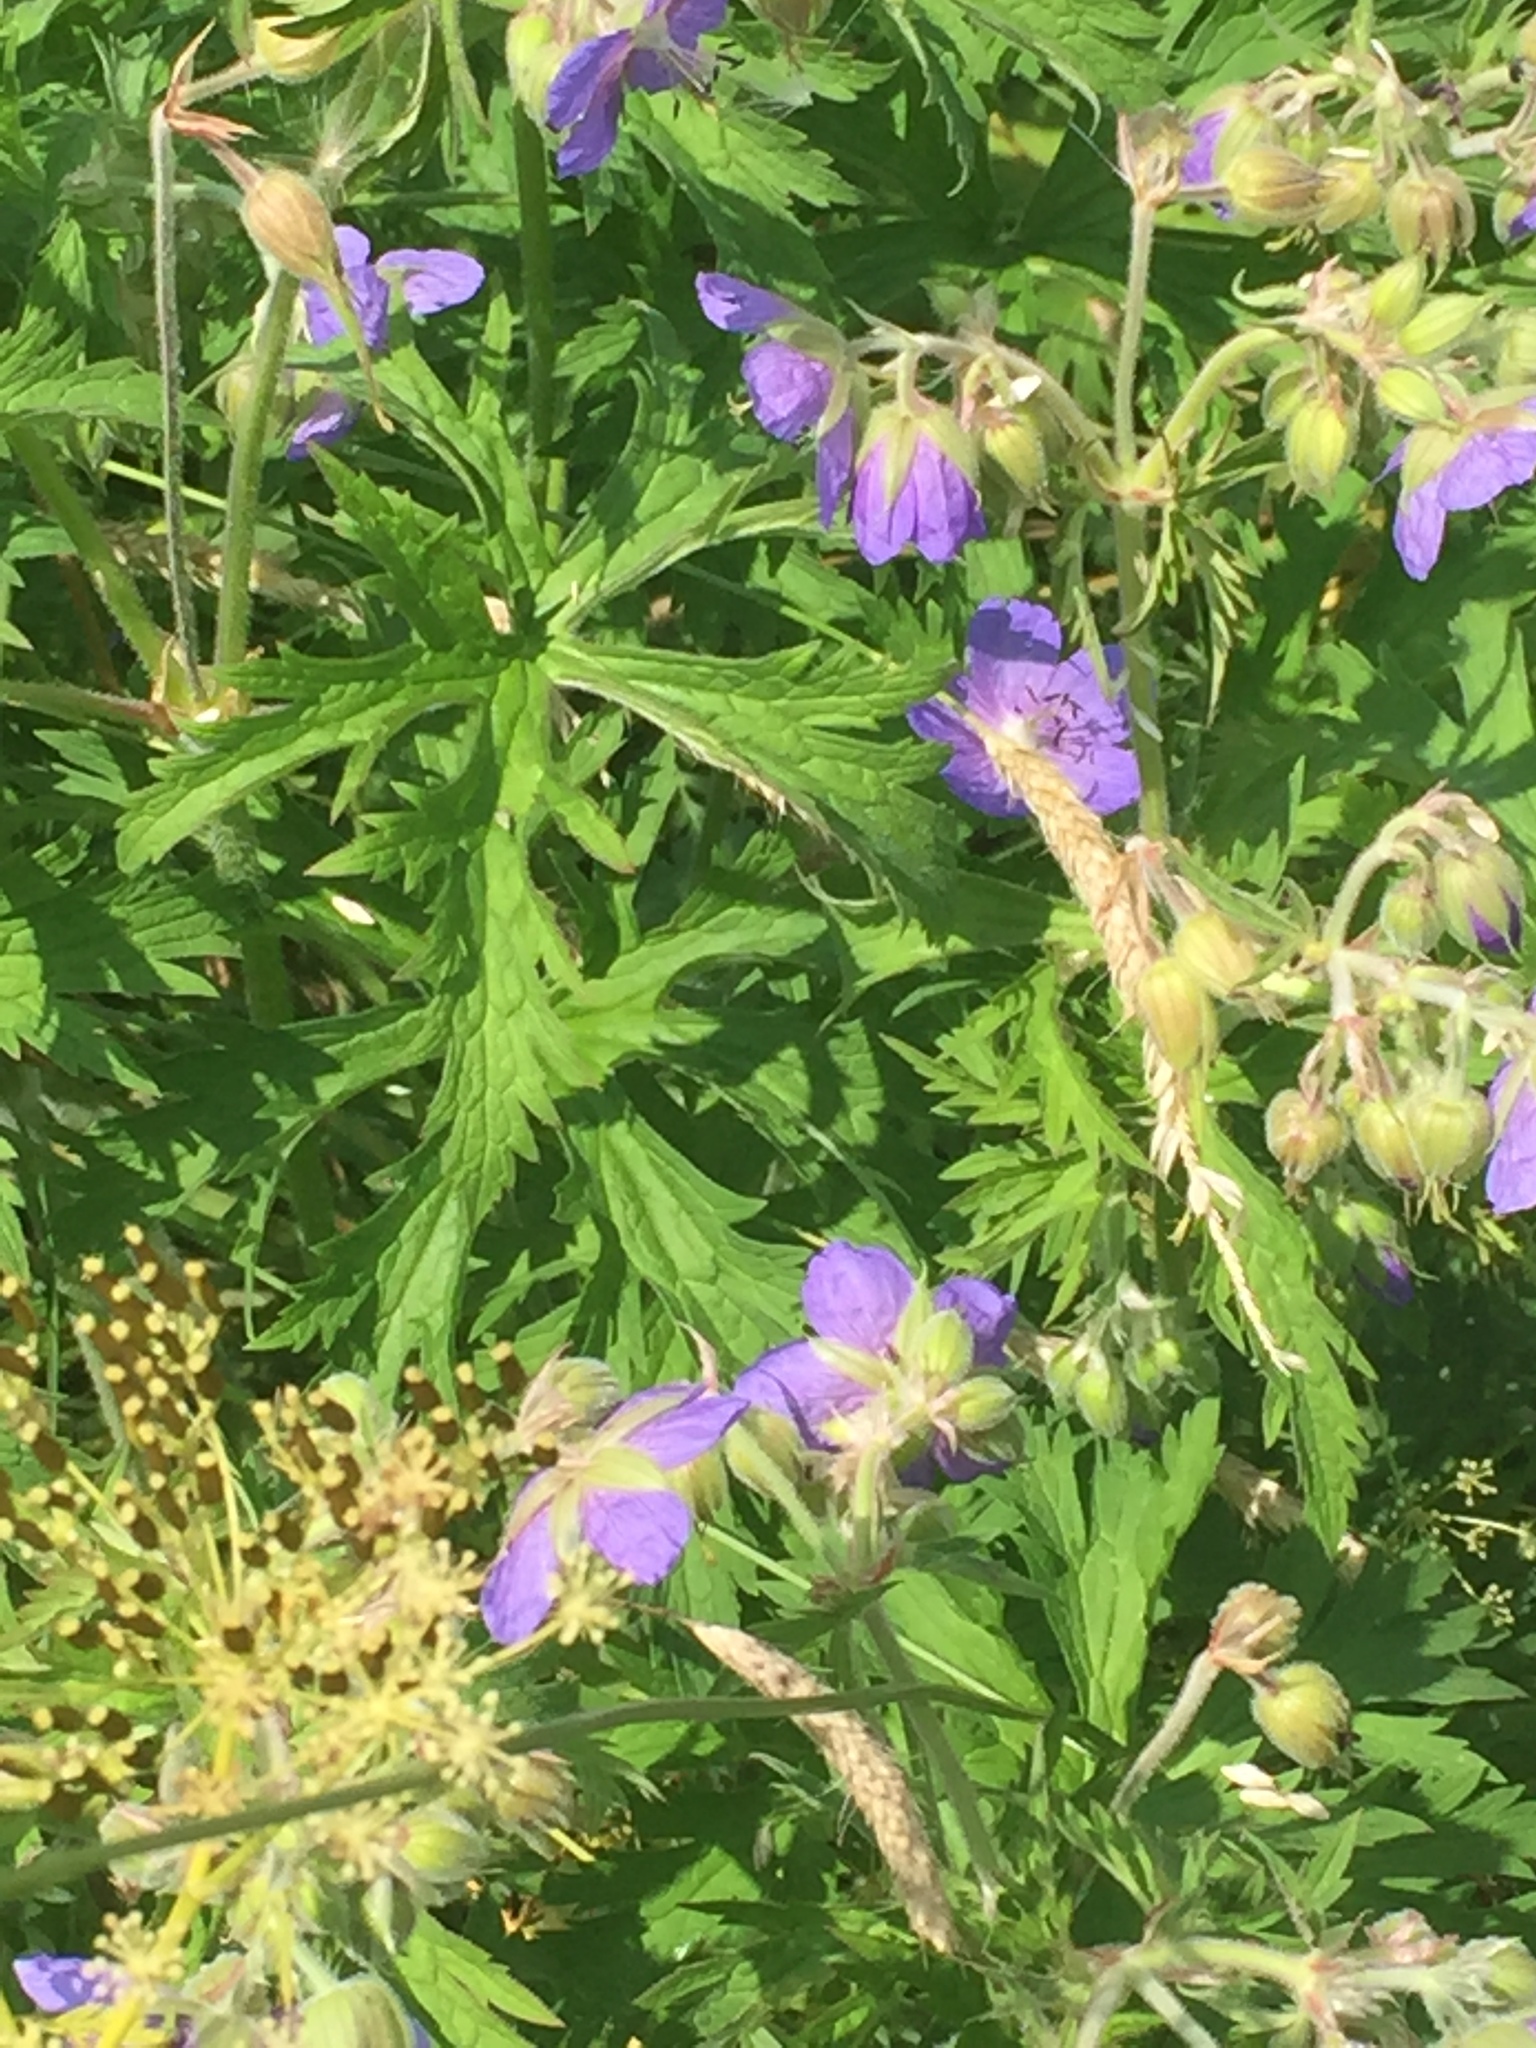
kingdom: Plantae
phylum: Tracheophyta
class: Magnoliopsida
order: Geraniales
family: Geraniaceae
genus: Geranium
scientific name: Geranium pratense
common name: Meadow crane's-bill
